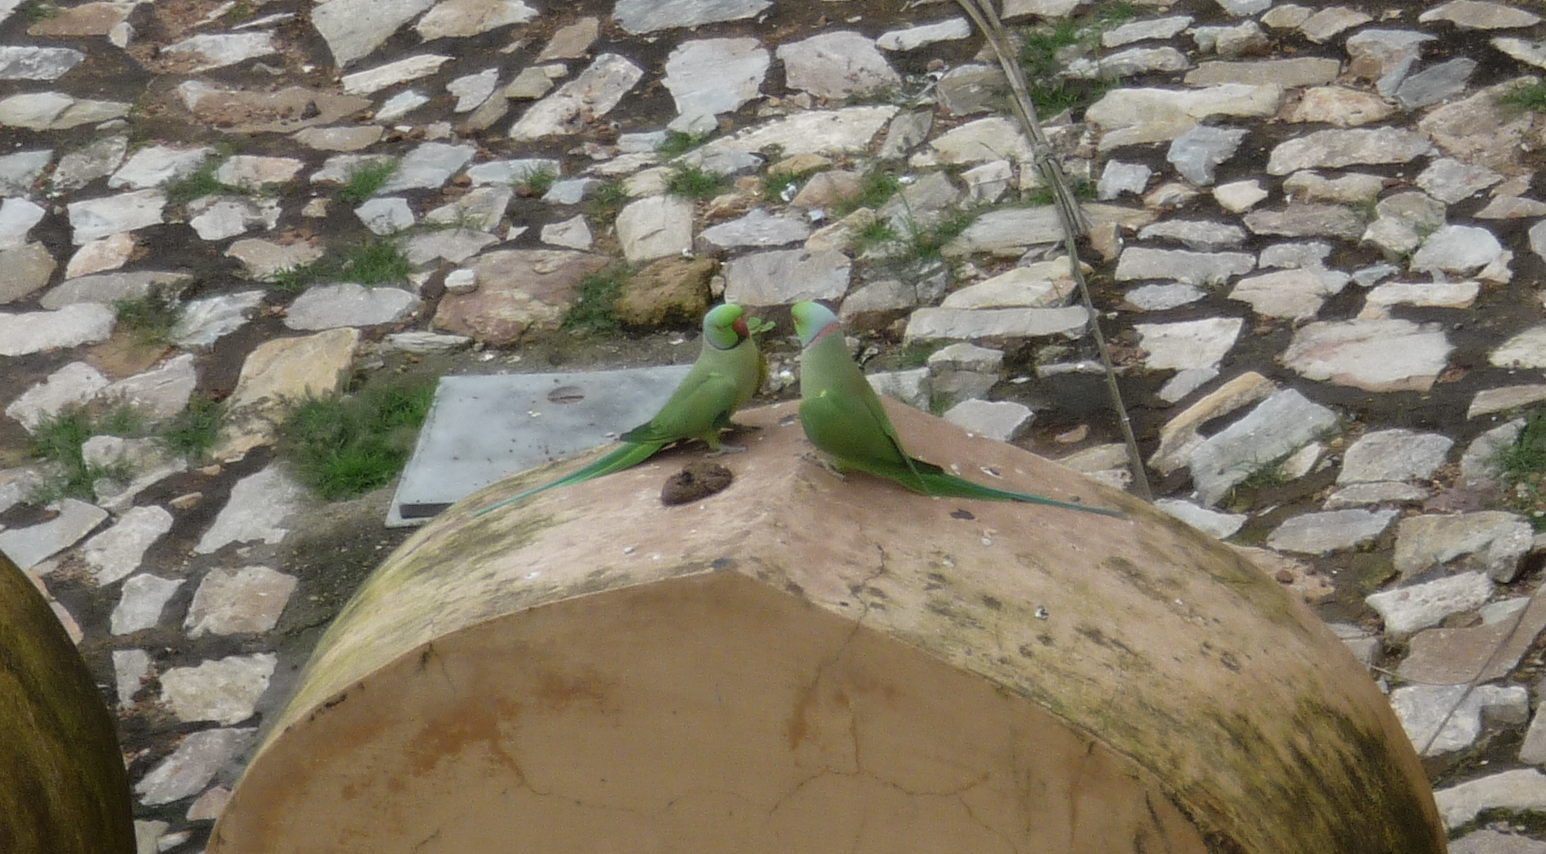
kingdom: Animalia
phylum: Chordata
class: Aves
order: Psittaciformes
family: Psittacidae
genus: Psittacula
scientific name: Psittacula krameri
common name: Rose-ringed parakeet
